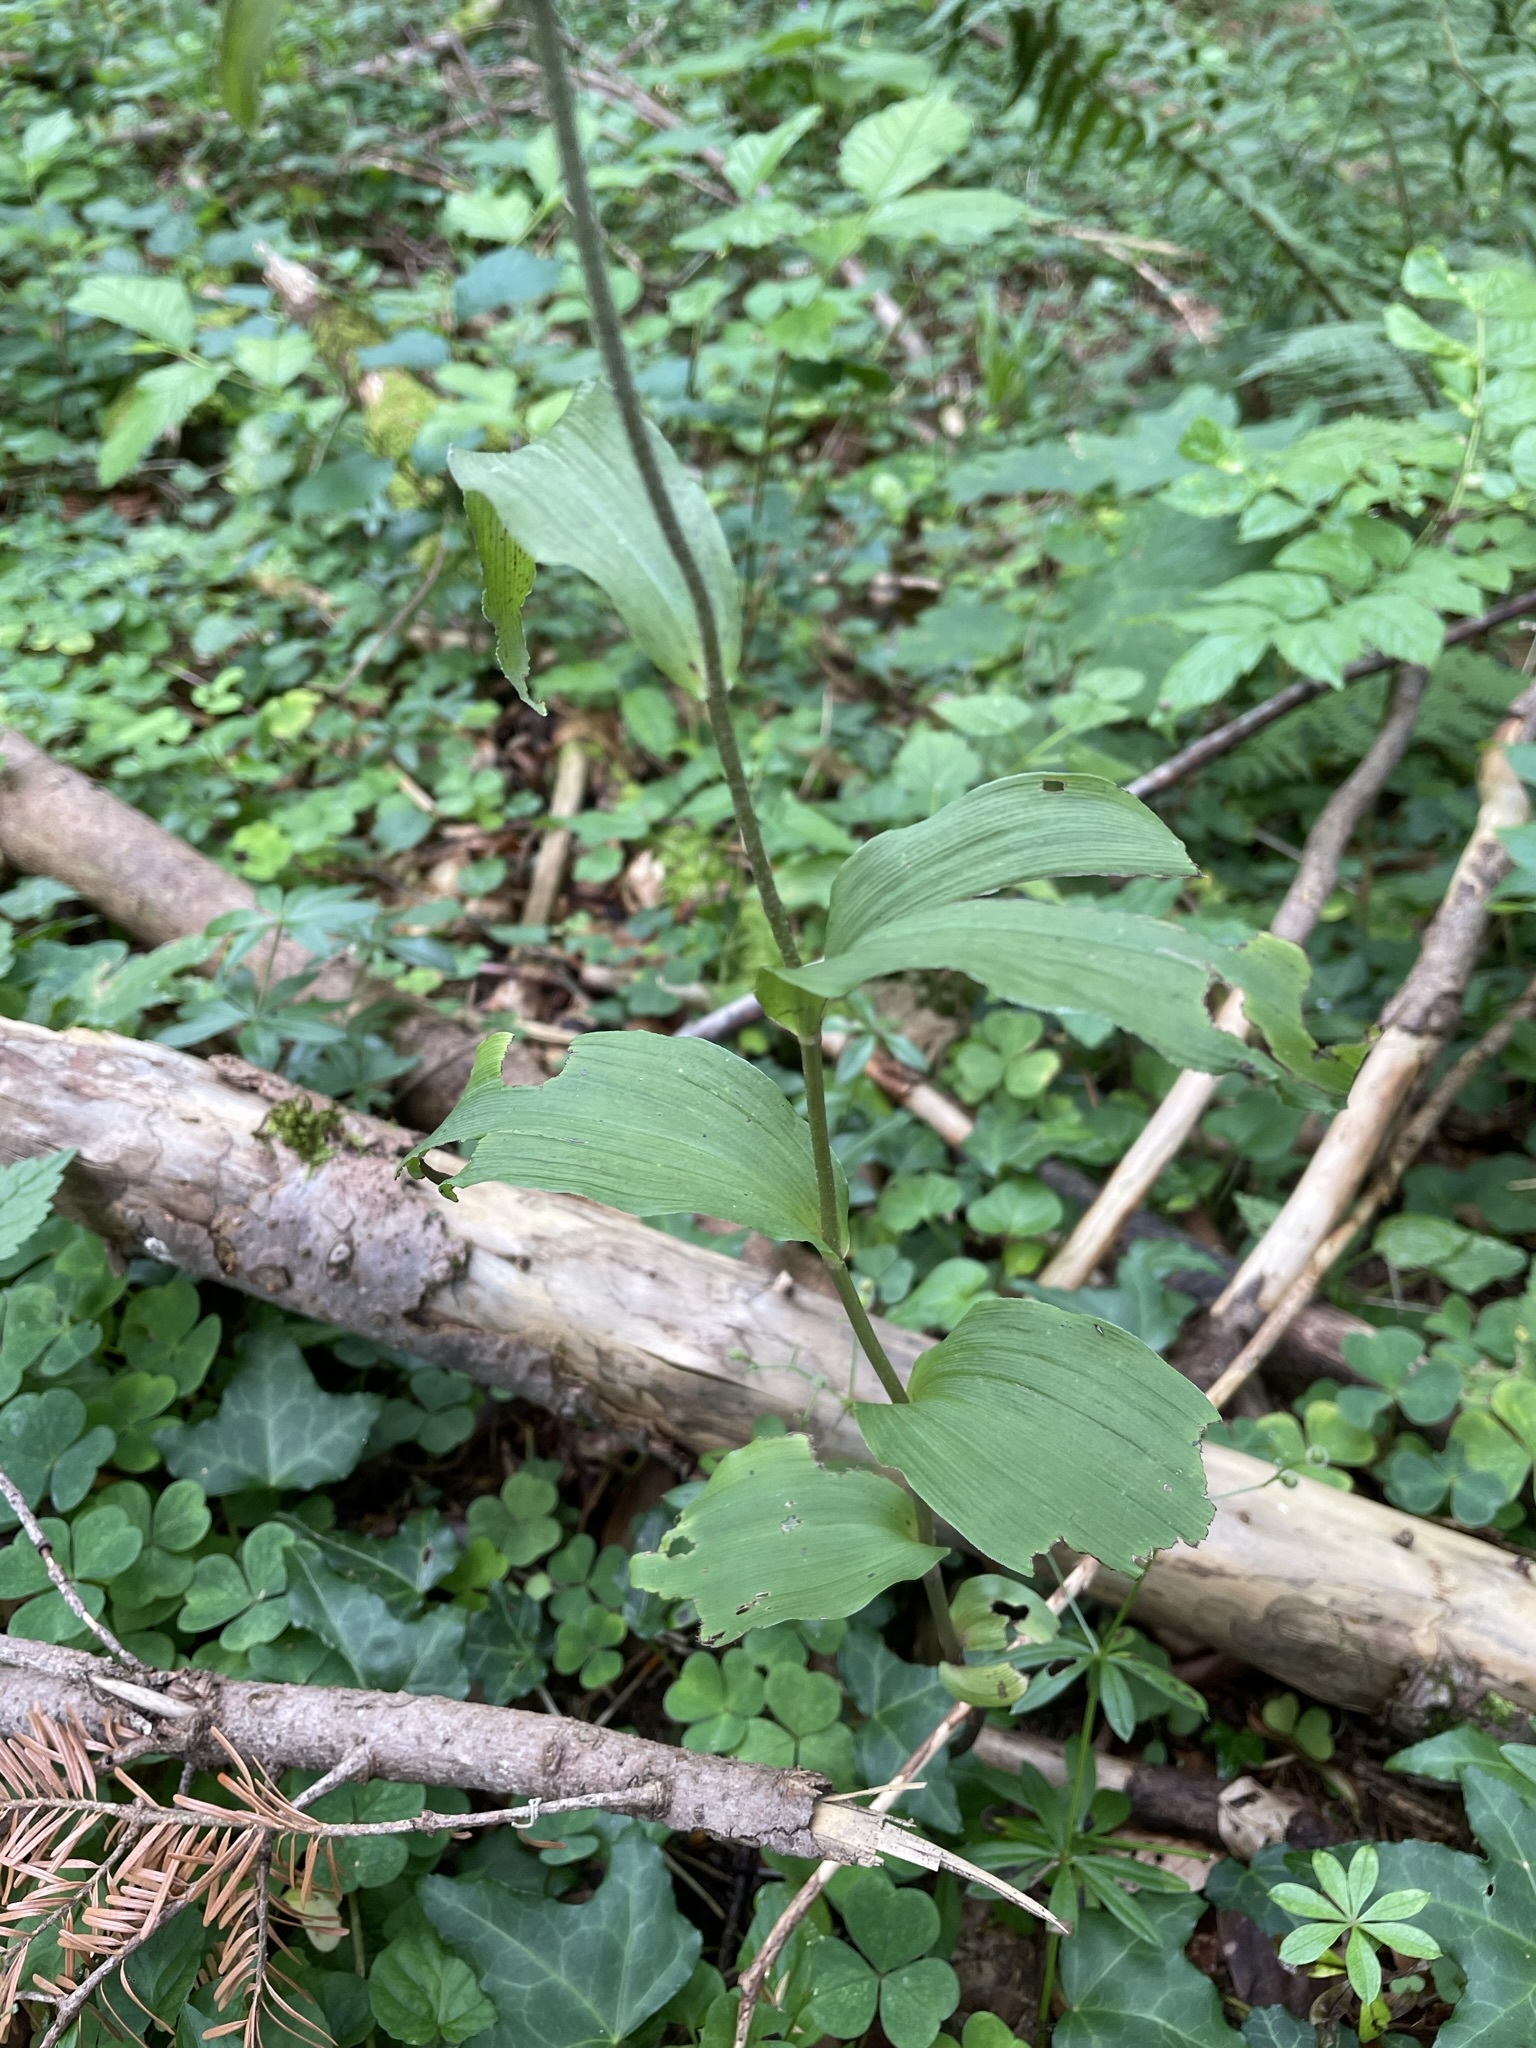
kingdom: Plantae
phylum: Tracheophyta
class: Liliopsida
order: Asparagales
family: Orchidaceae
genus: Epipactis
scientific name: Epipactis helleborine
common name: Broad-leaved helleborine
